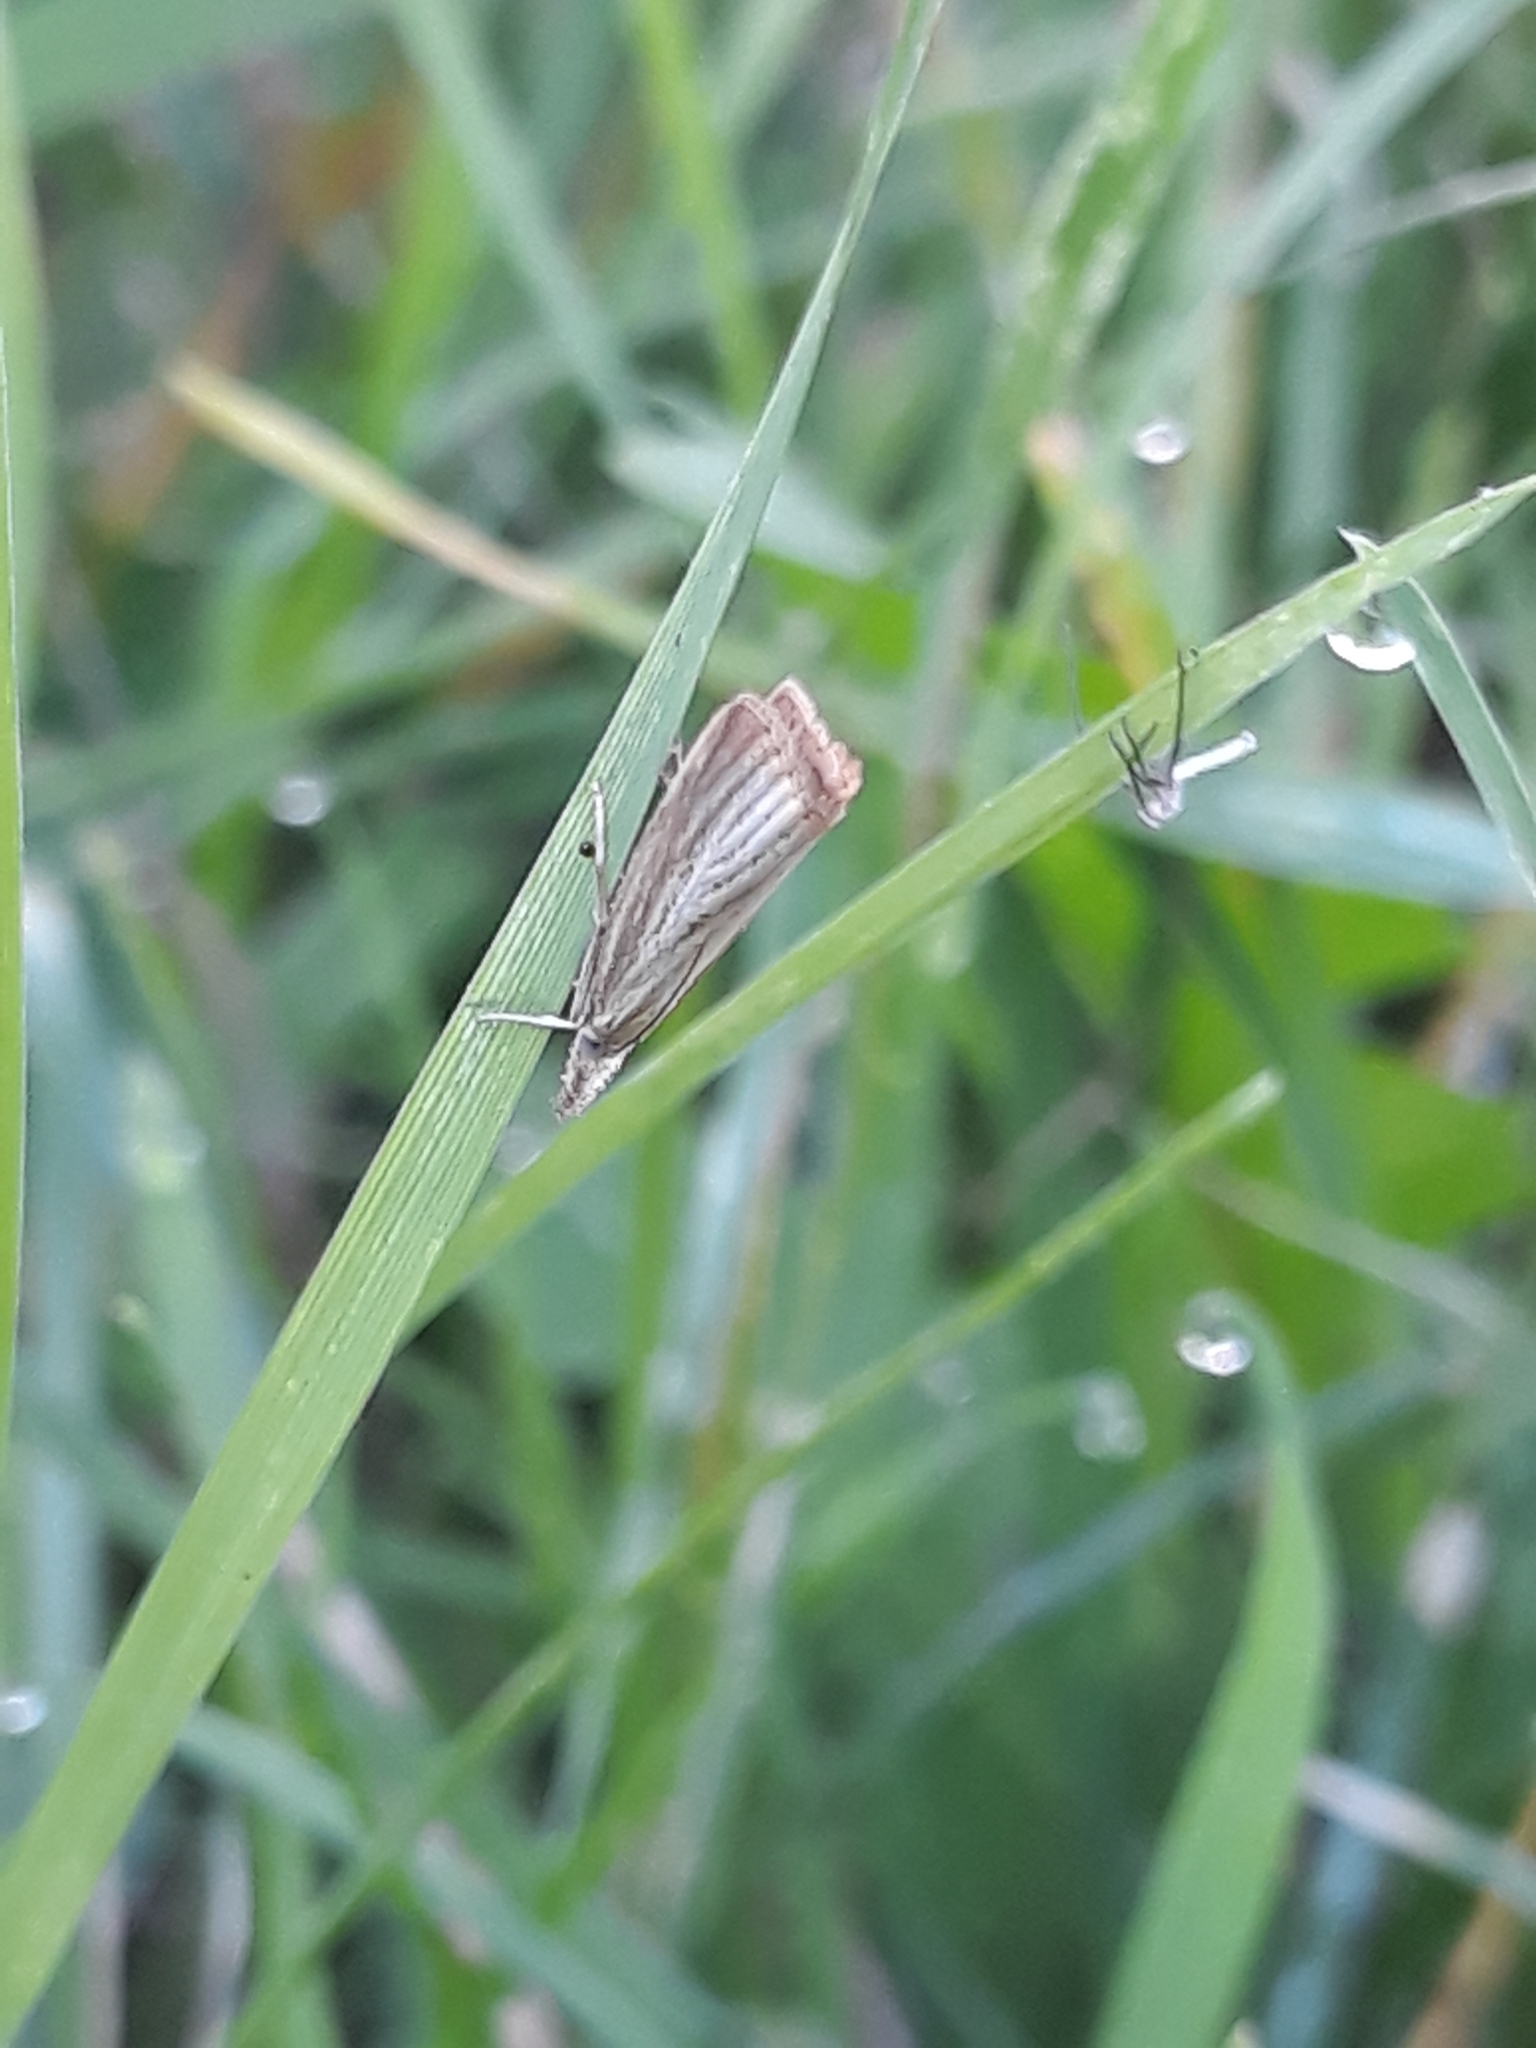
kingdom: Animalia
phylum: Arthropoda
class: Insecta
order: Lepidoptera
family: Crambidae
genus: Agriphila
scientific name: Agriphila straminella
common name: Straw grass-veneer
